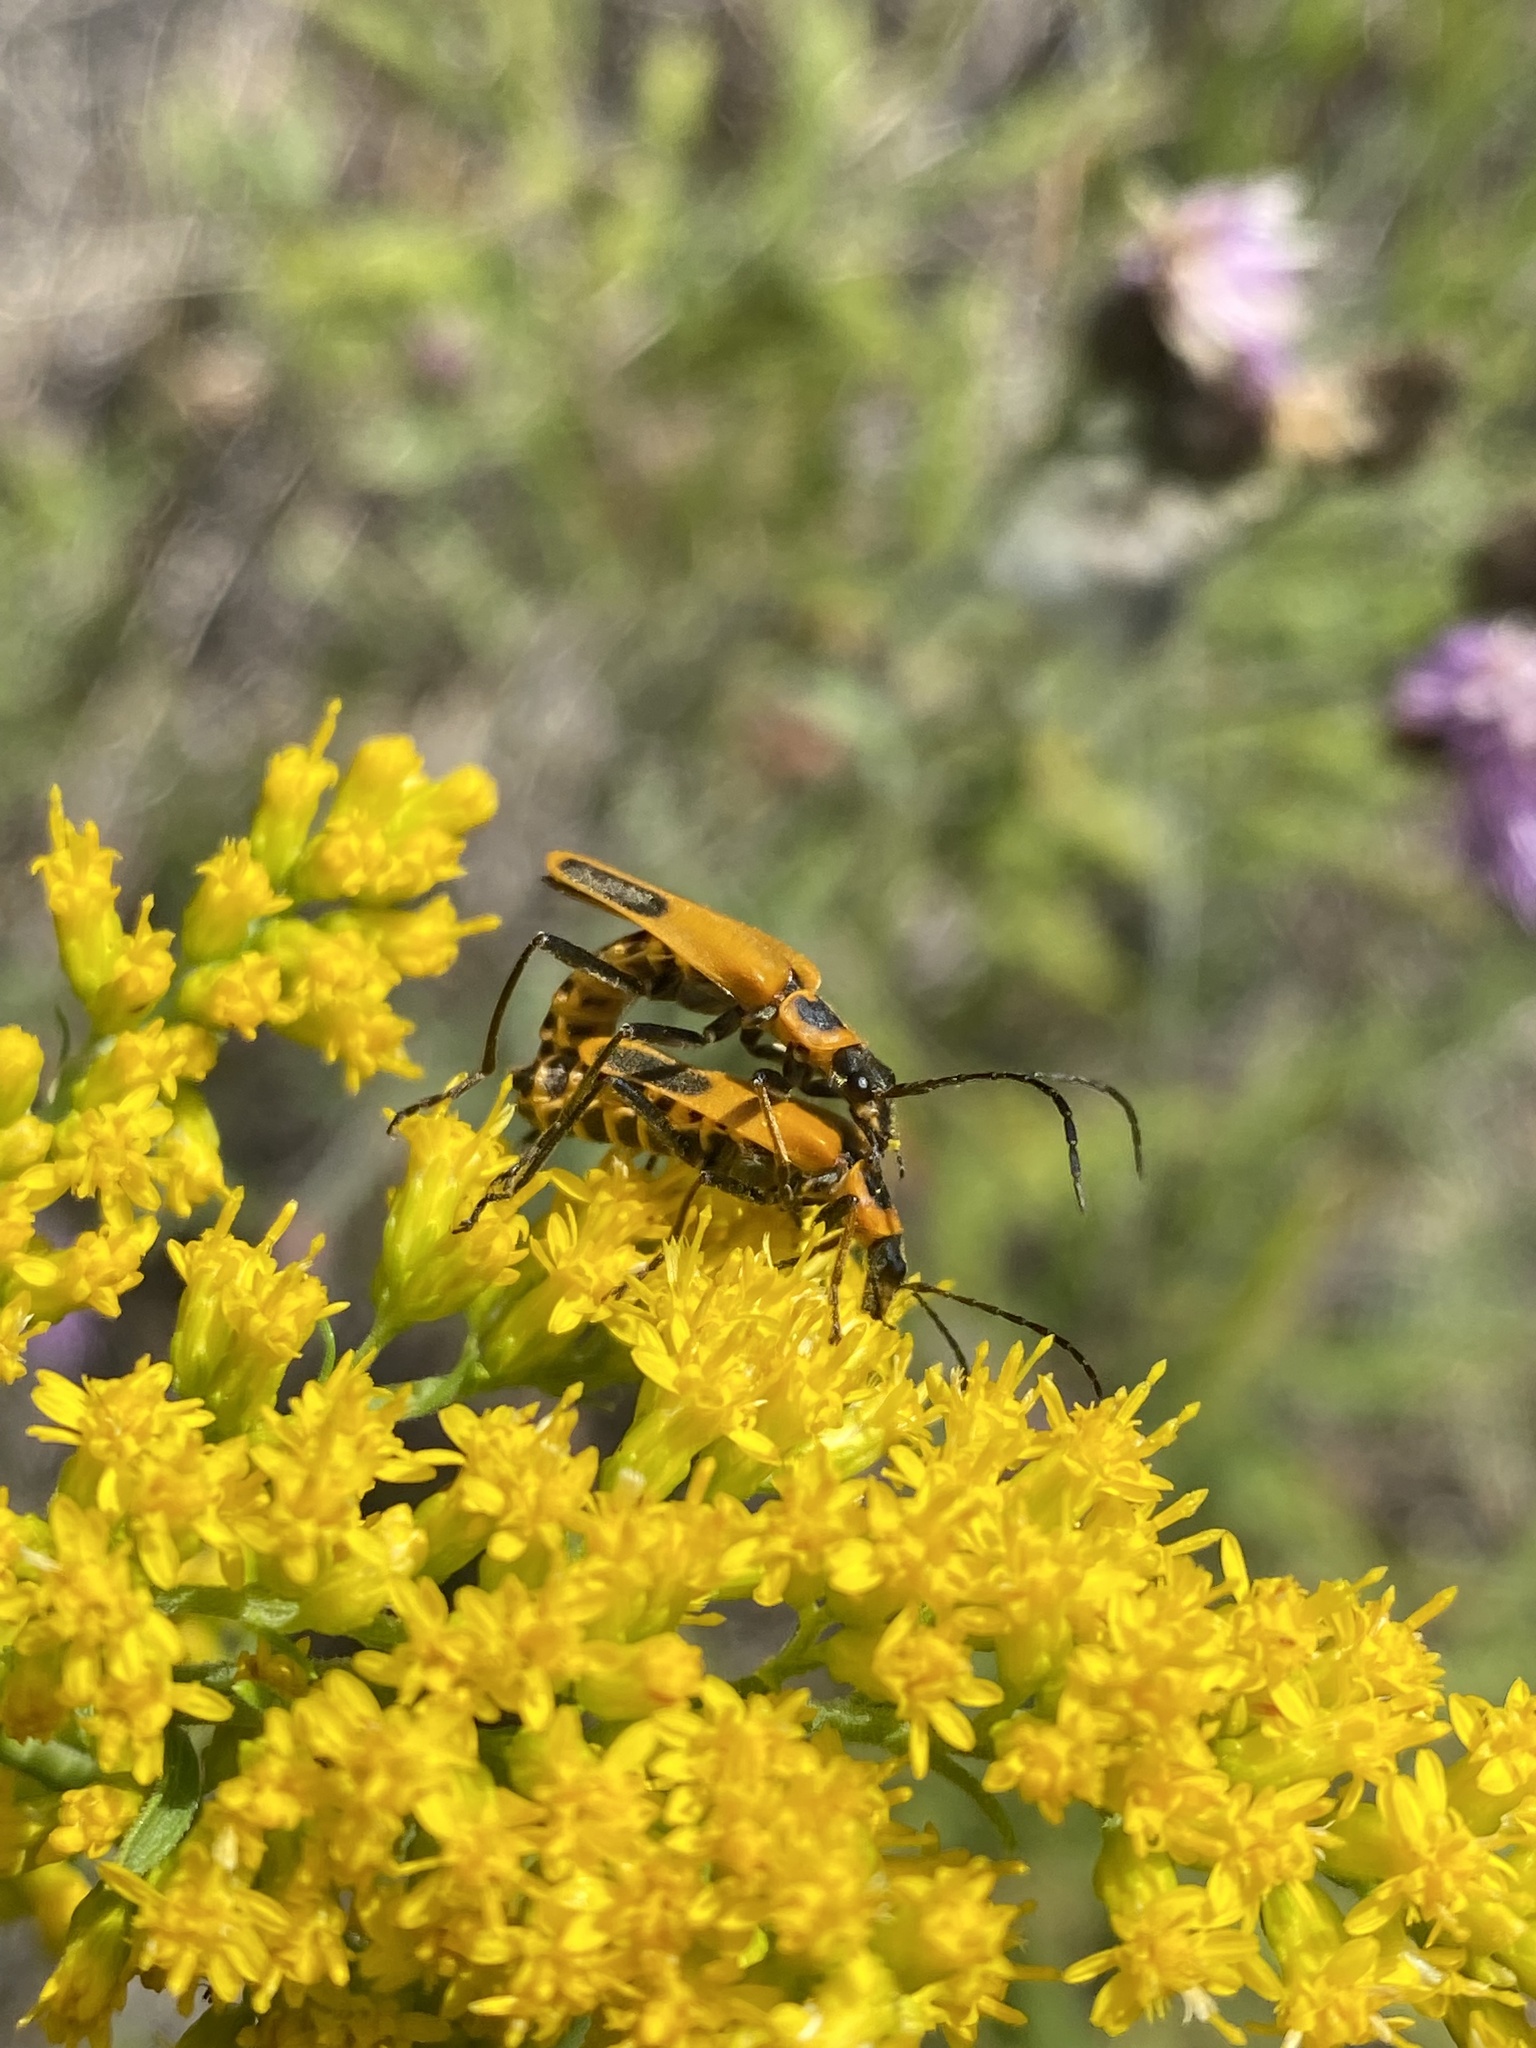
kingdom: Animalia
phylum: Arthropoda
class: Insecta
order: Coleoptera
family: Cantharidae
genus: Chauliognathus
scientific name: Chauliognathus pensylvanicus
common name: Goldenrod soldier beetle
